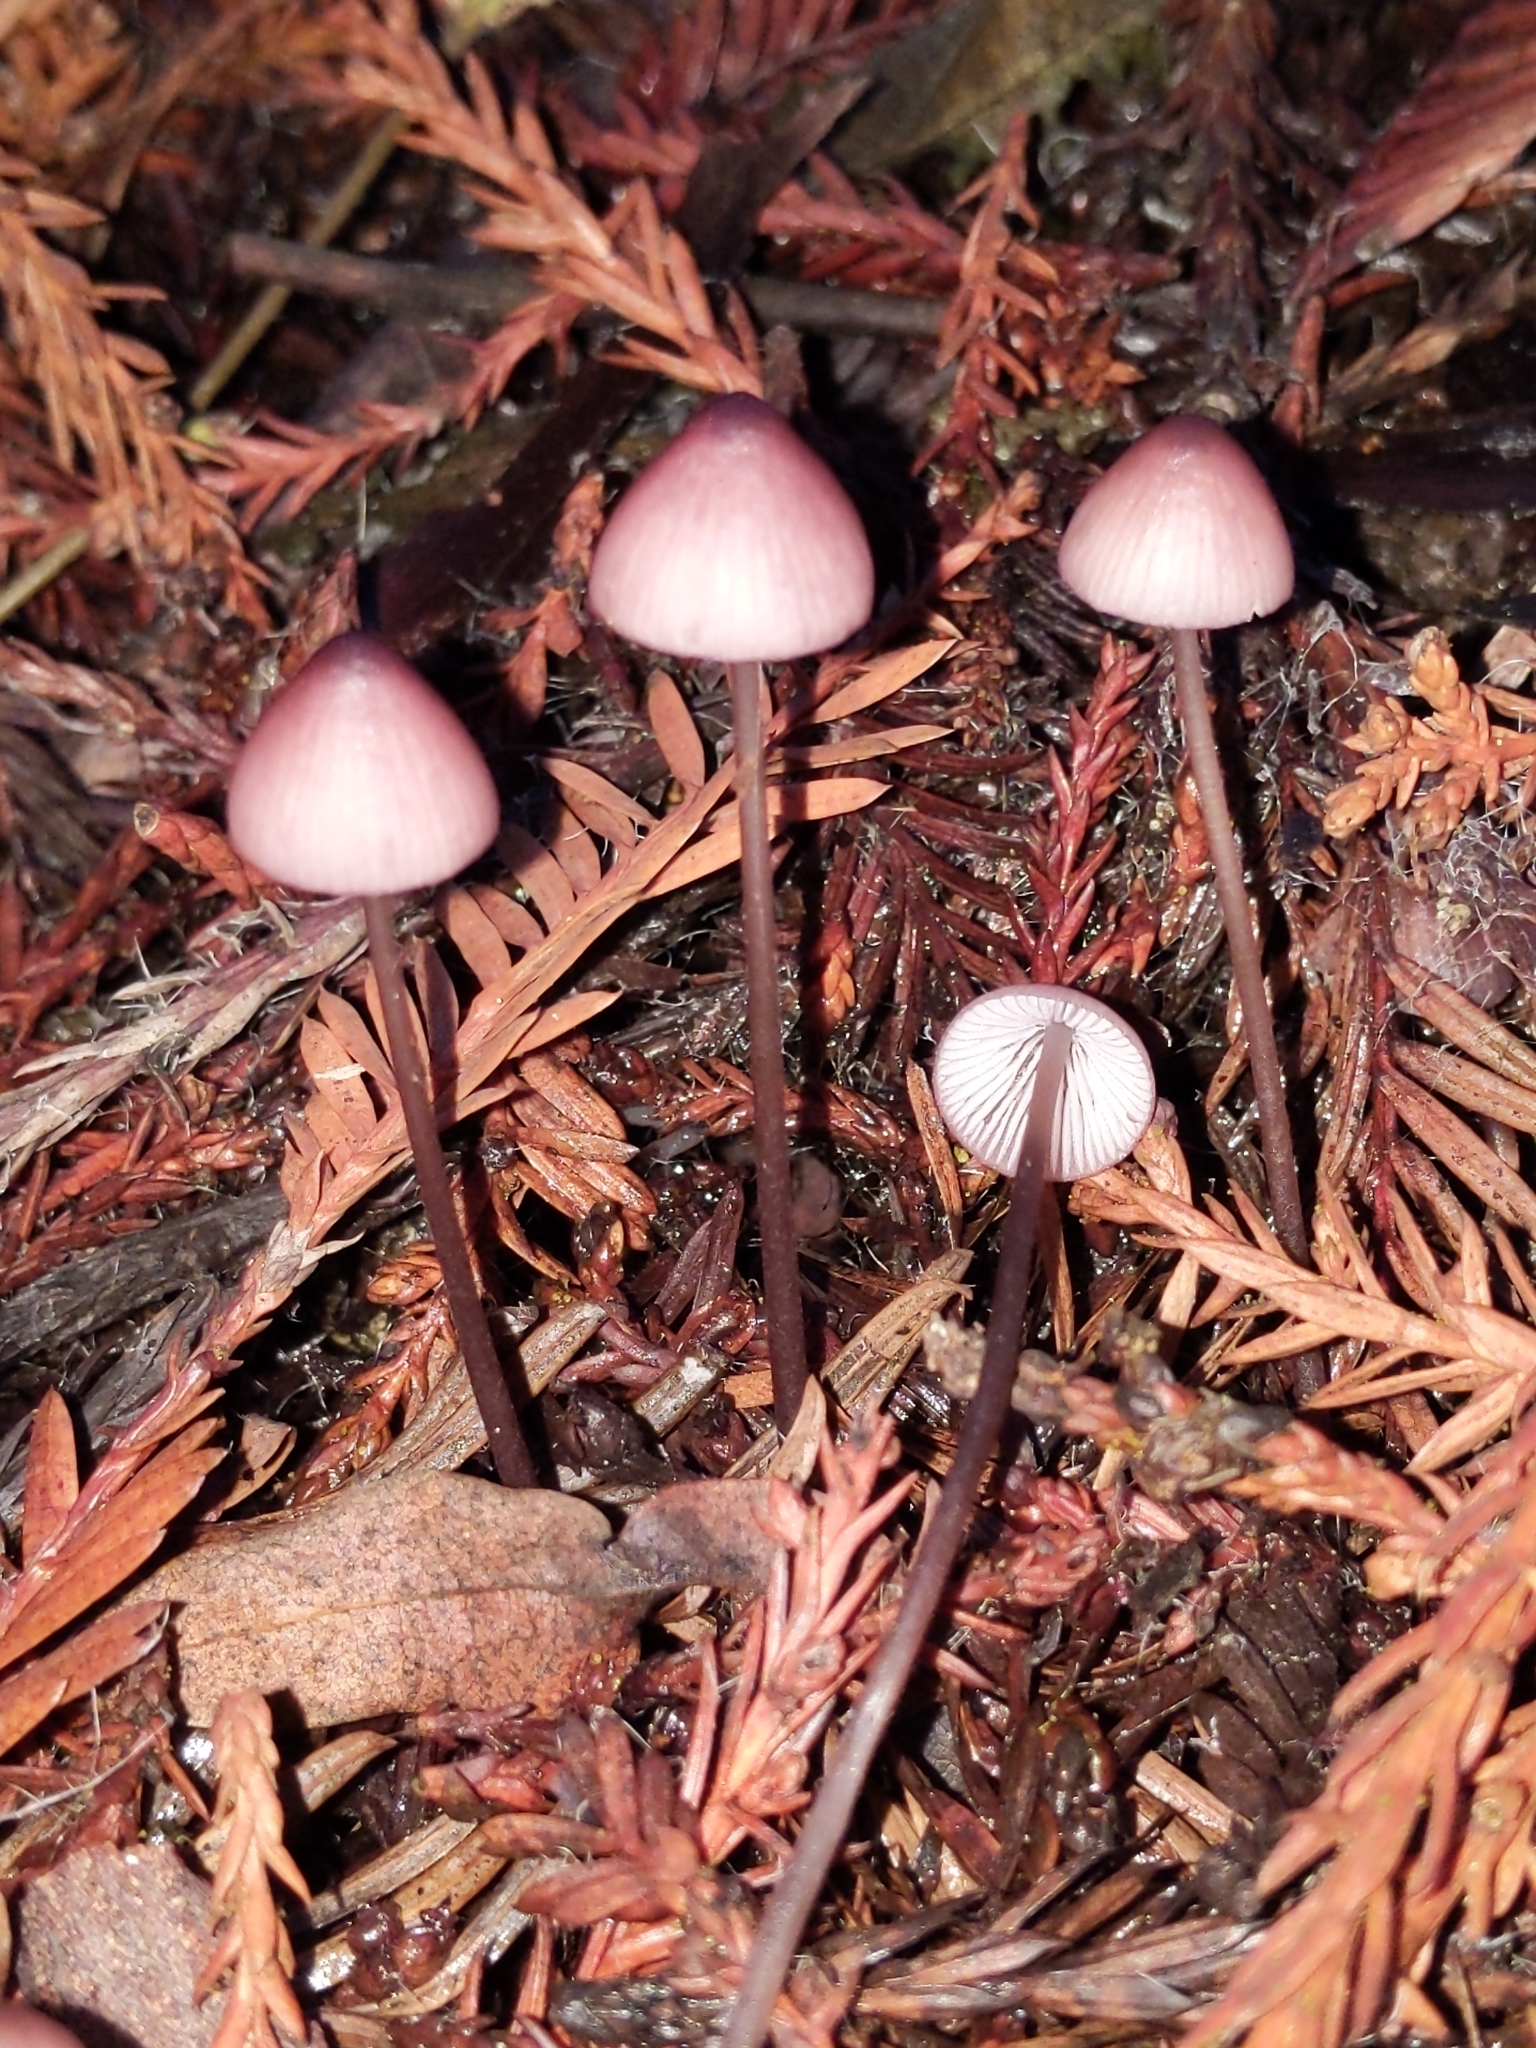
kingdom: Fungi
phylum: Basidiomycota
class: Agaricomycetes
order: Agaricales
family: Mycenaceae
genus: Mycena
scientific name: Mycena purpureofusca
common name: Purple edge bonnet
